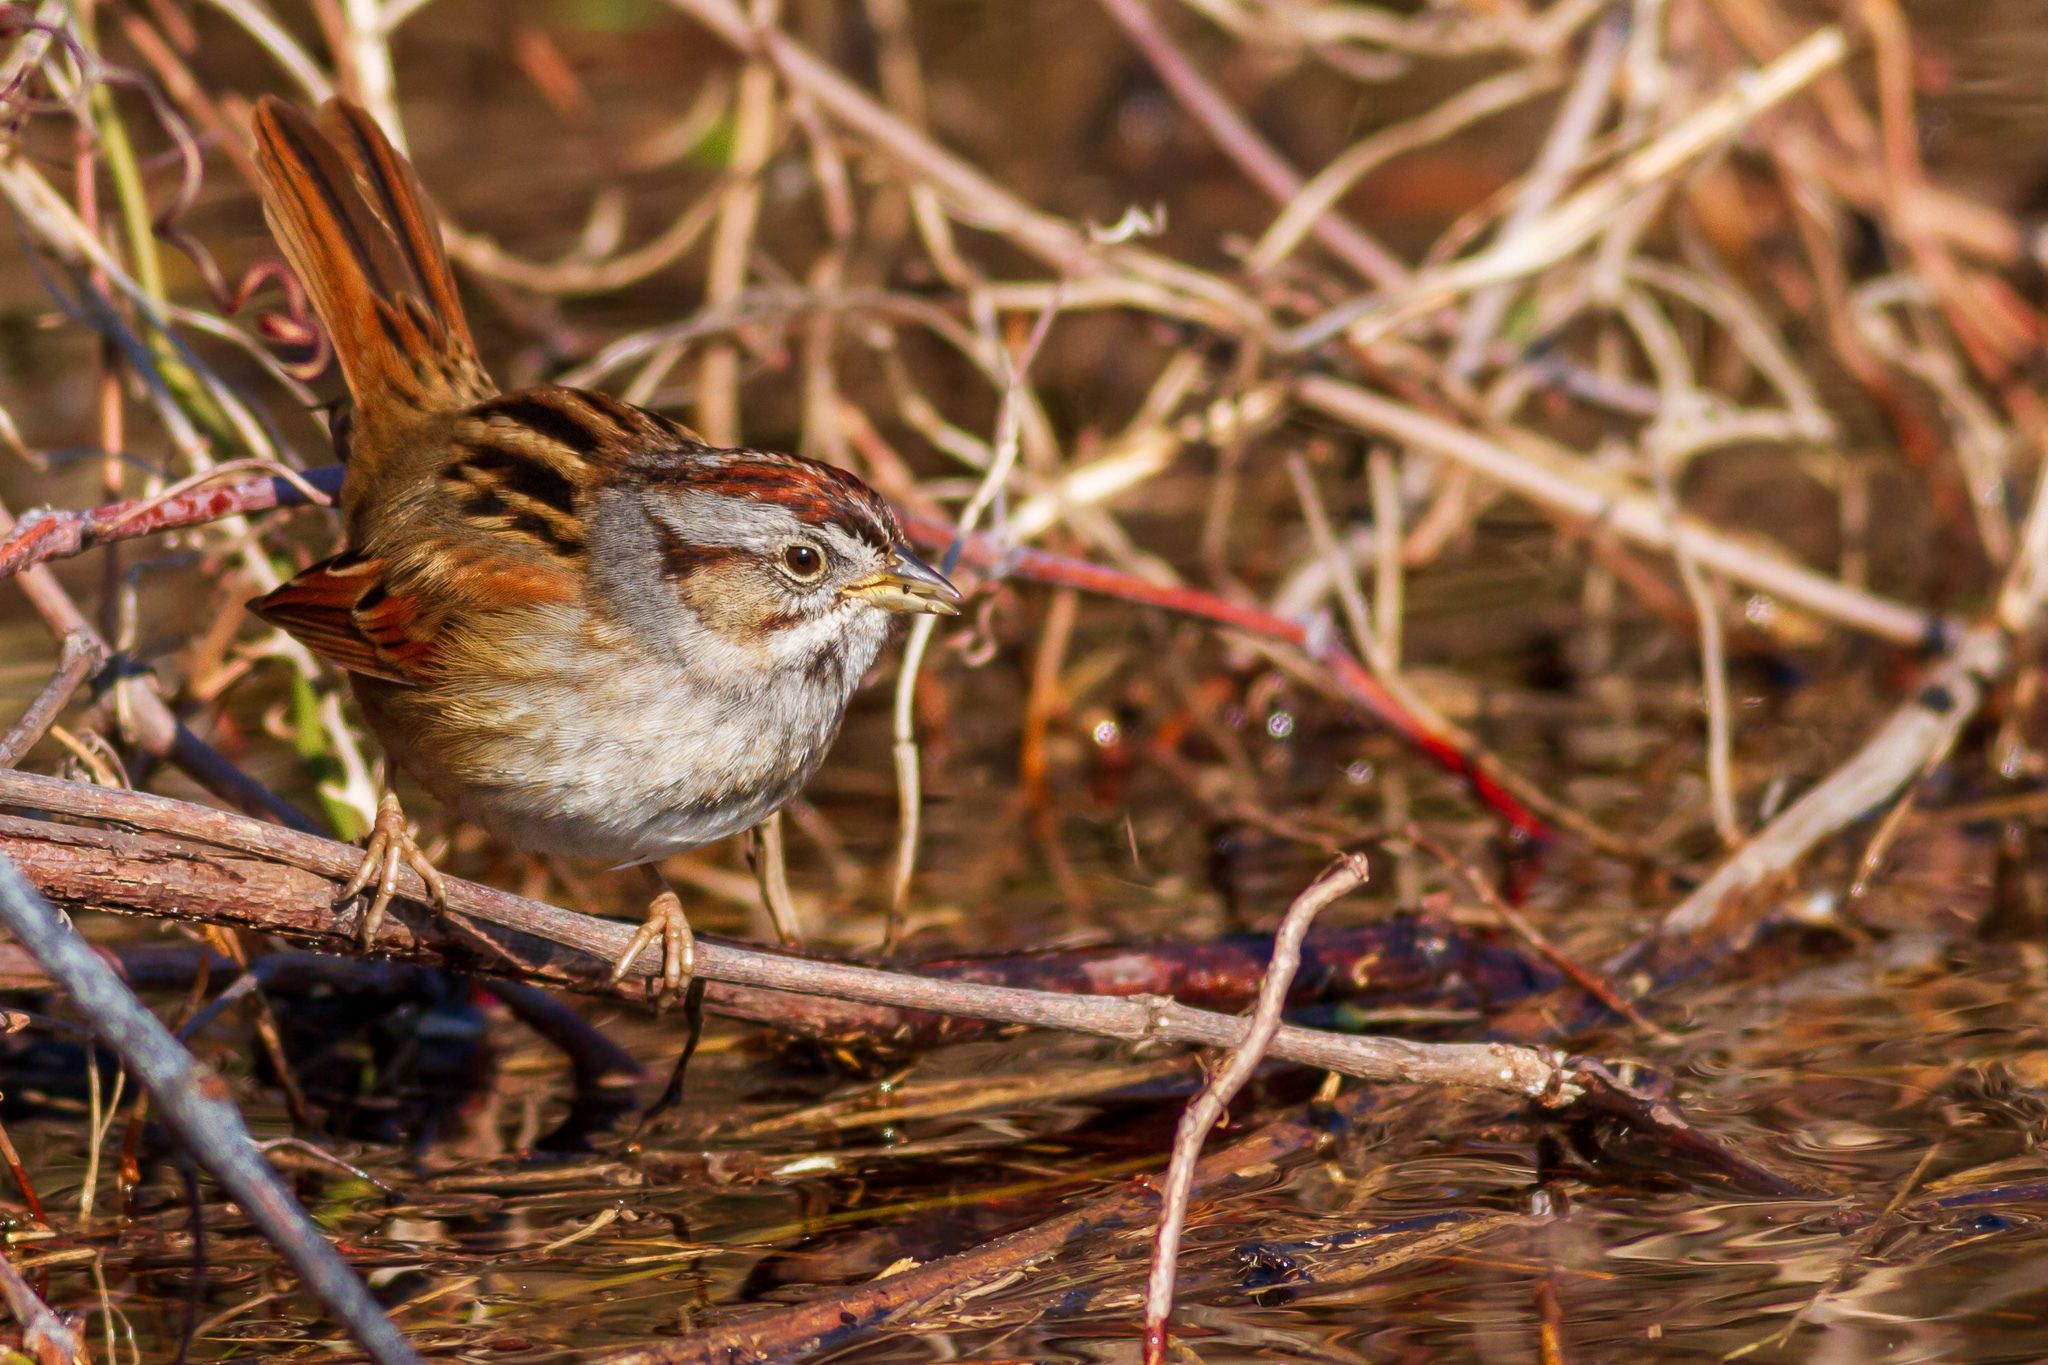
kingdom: Animalia
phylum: Chordata
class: Aves
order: Passeriformes
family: Passerellidae
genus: Melospiza
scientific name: Melospiza georgiana
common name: Swamp sparrow
